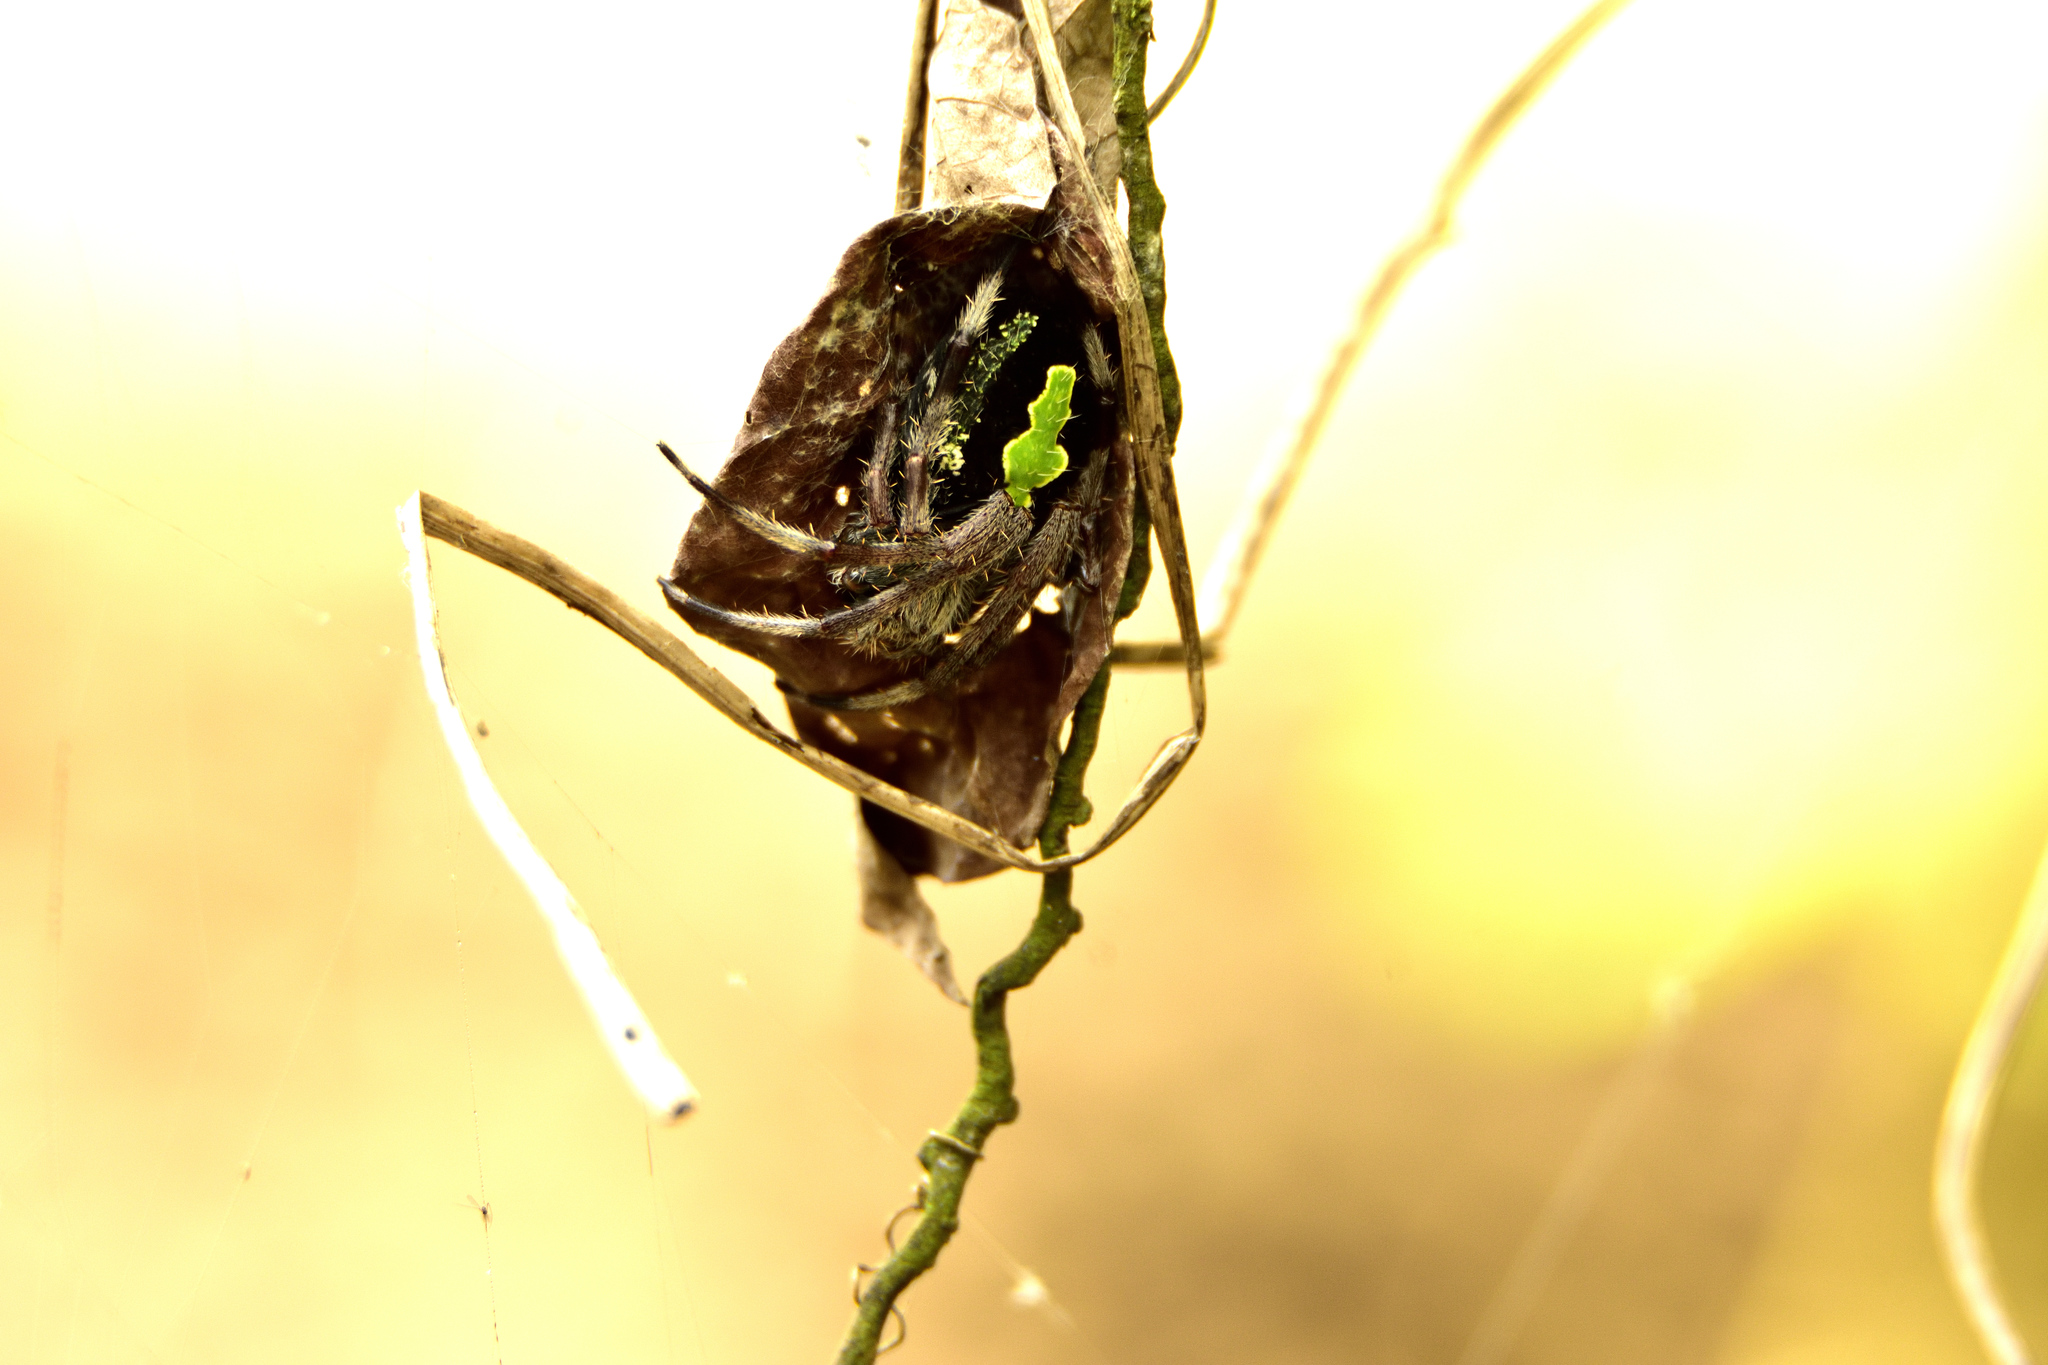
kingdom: Animalia
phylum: Arthropoda
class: Arachnida
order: Araneae
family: Araneidae
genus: Eriophora
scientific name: Eriophora ravilla
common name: Orb weavers
